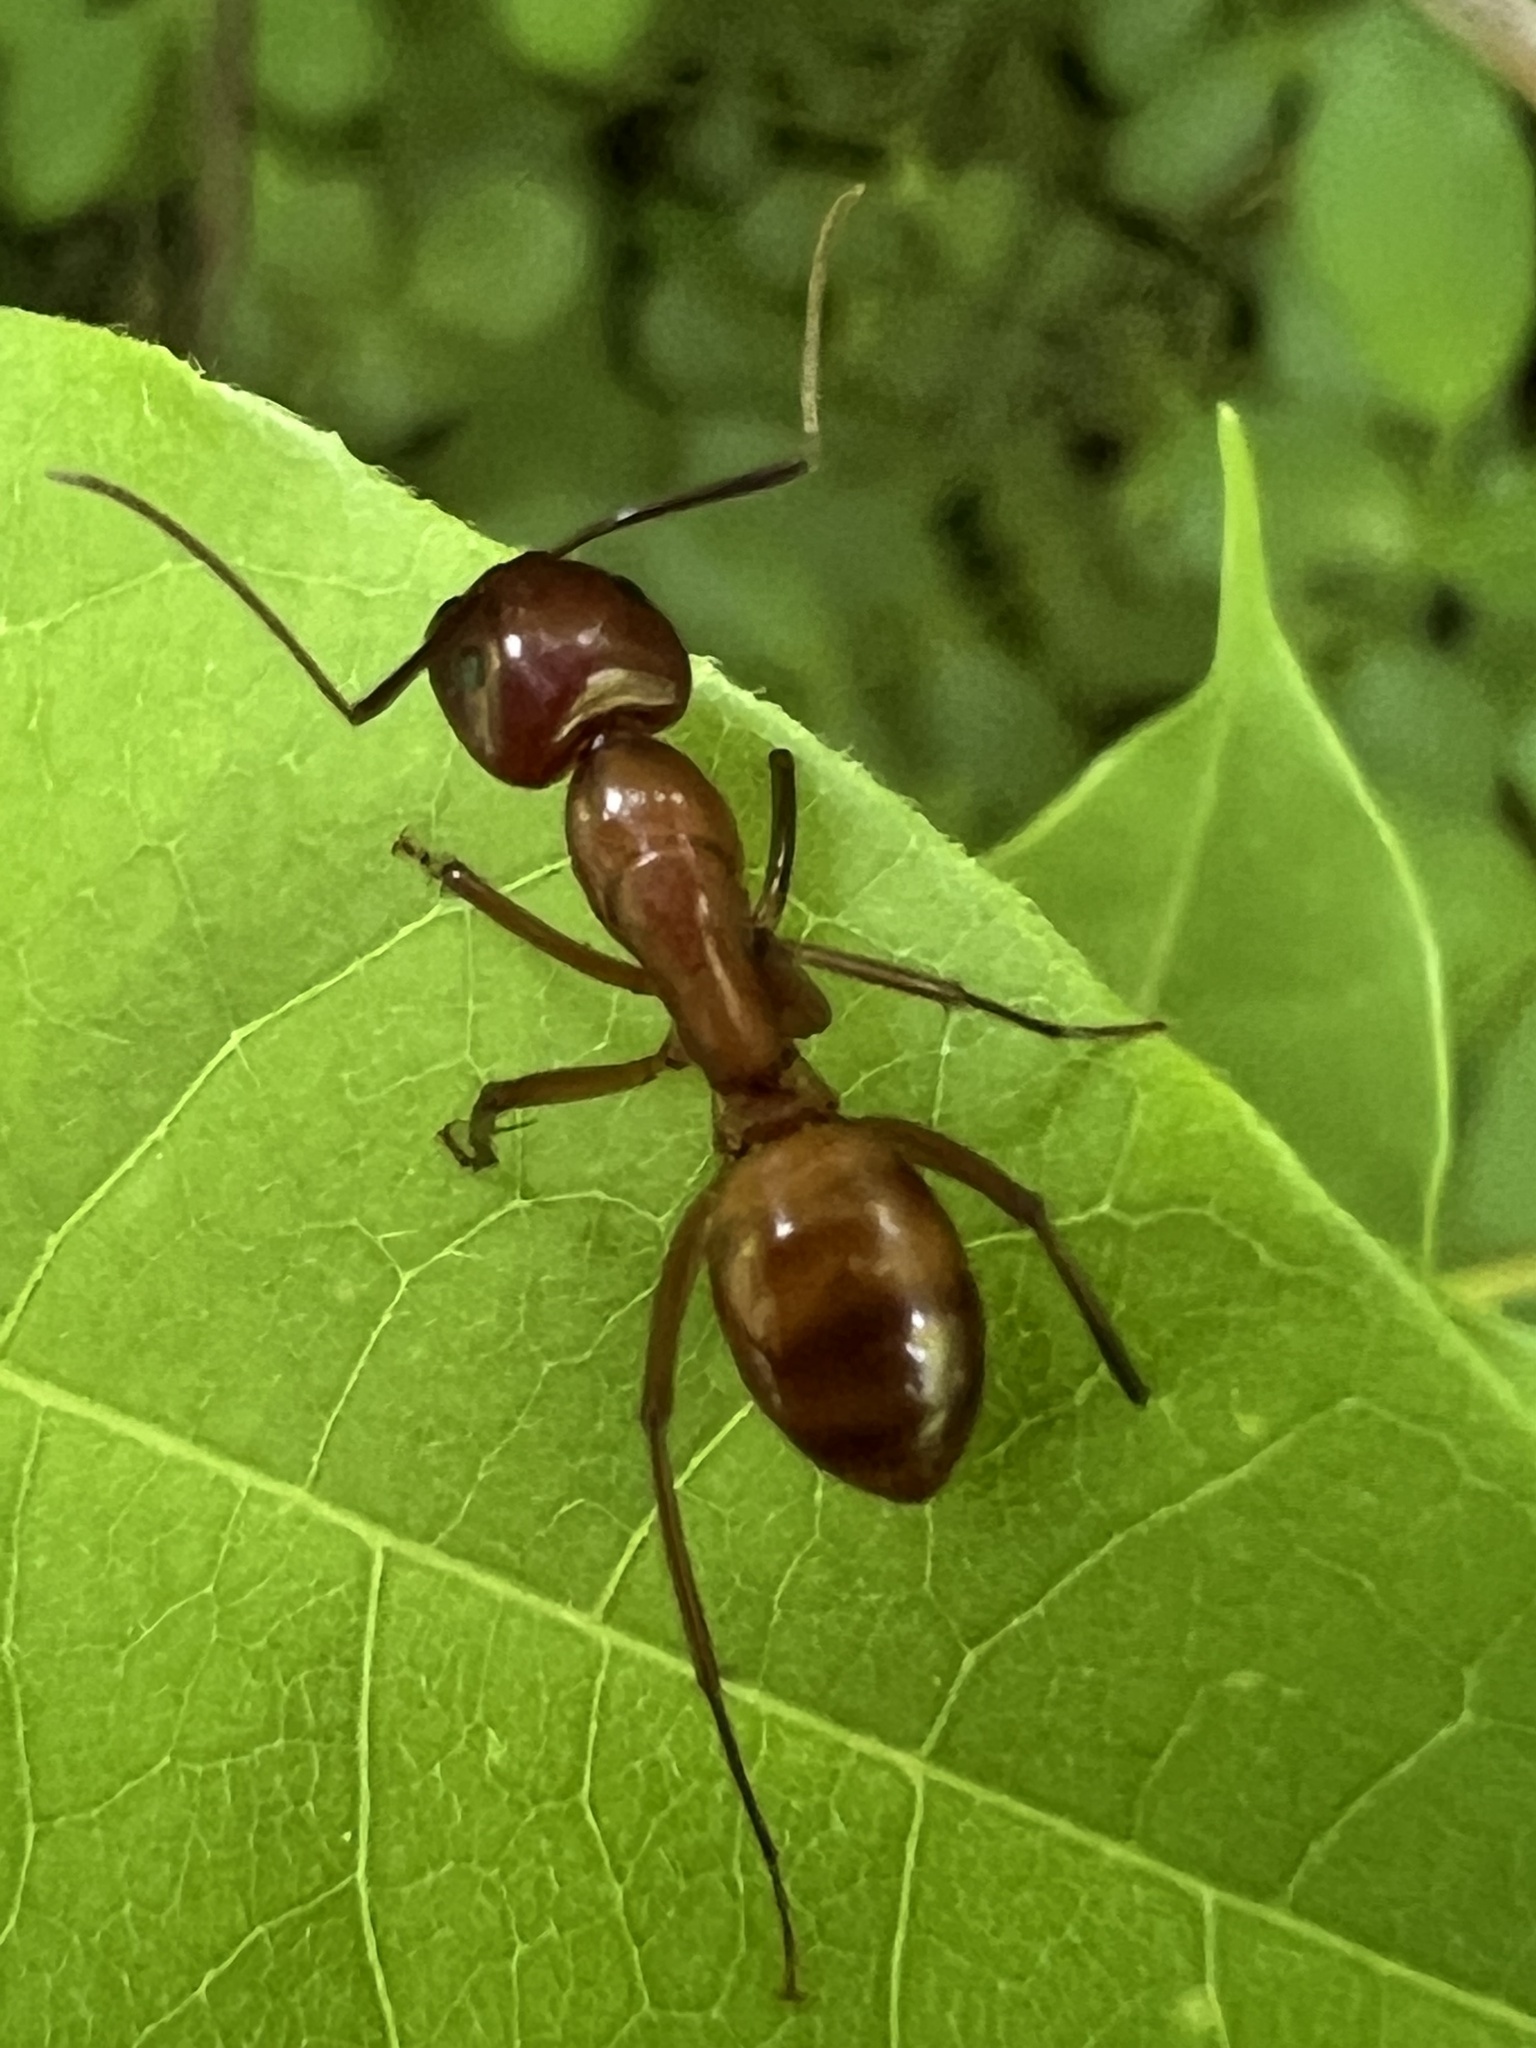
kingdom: Animalia
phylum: Arthropoda
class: Insecta
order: Hymenoptera
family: Formicidae
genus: Camponotus
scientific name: Camponotus castaneus
